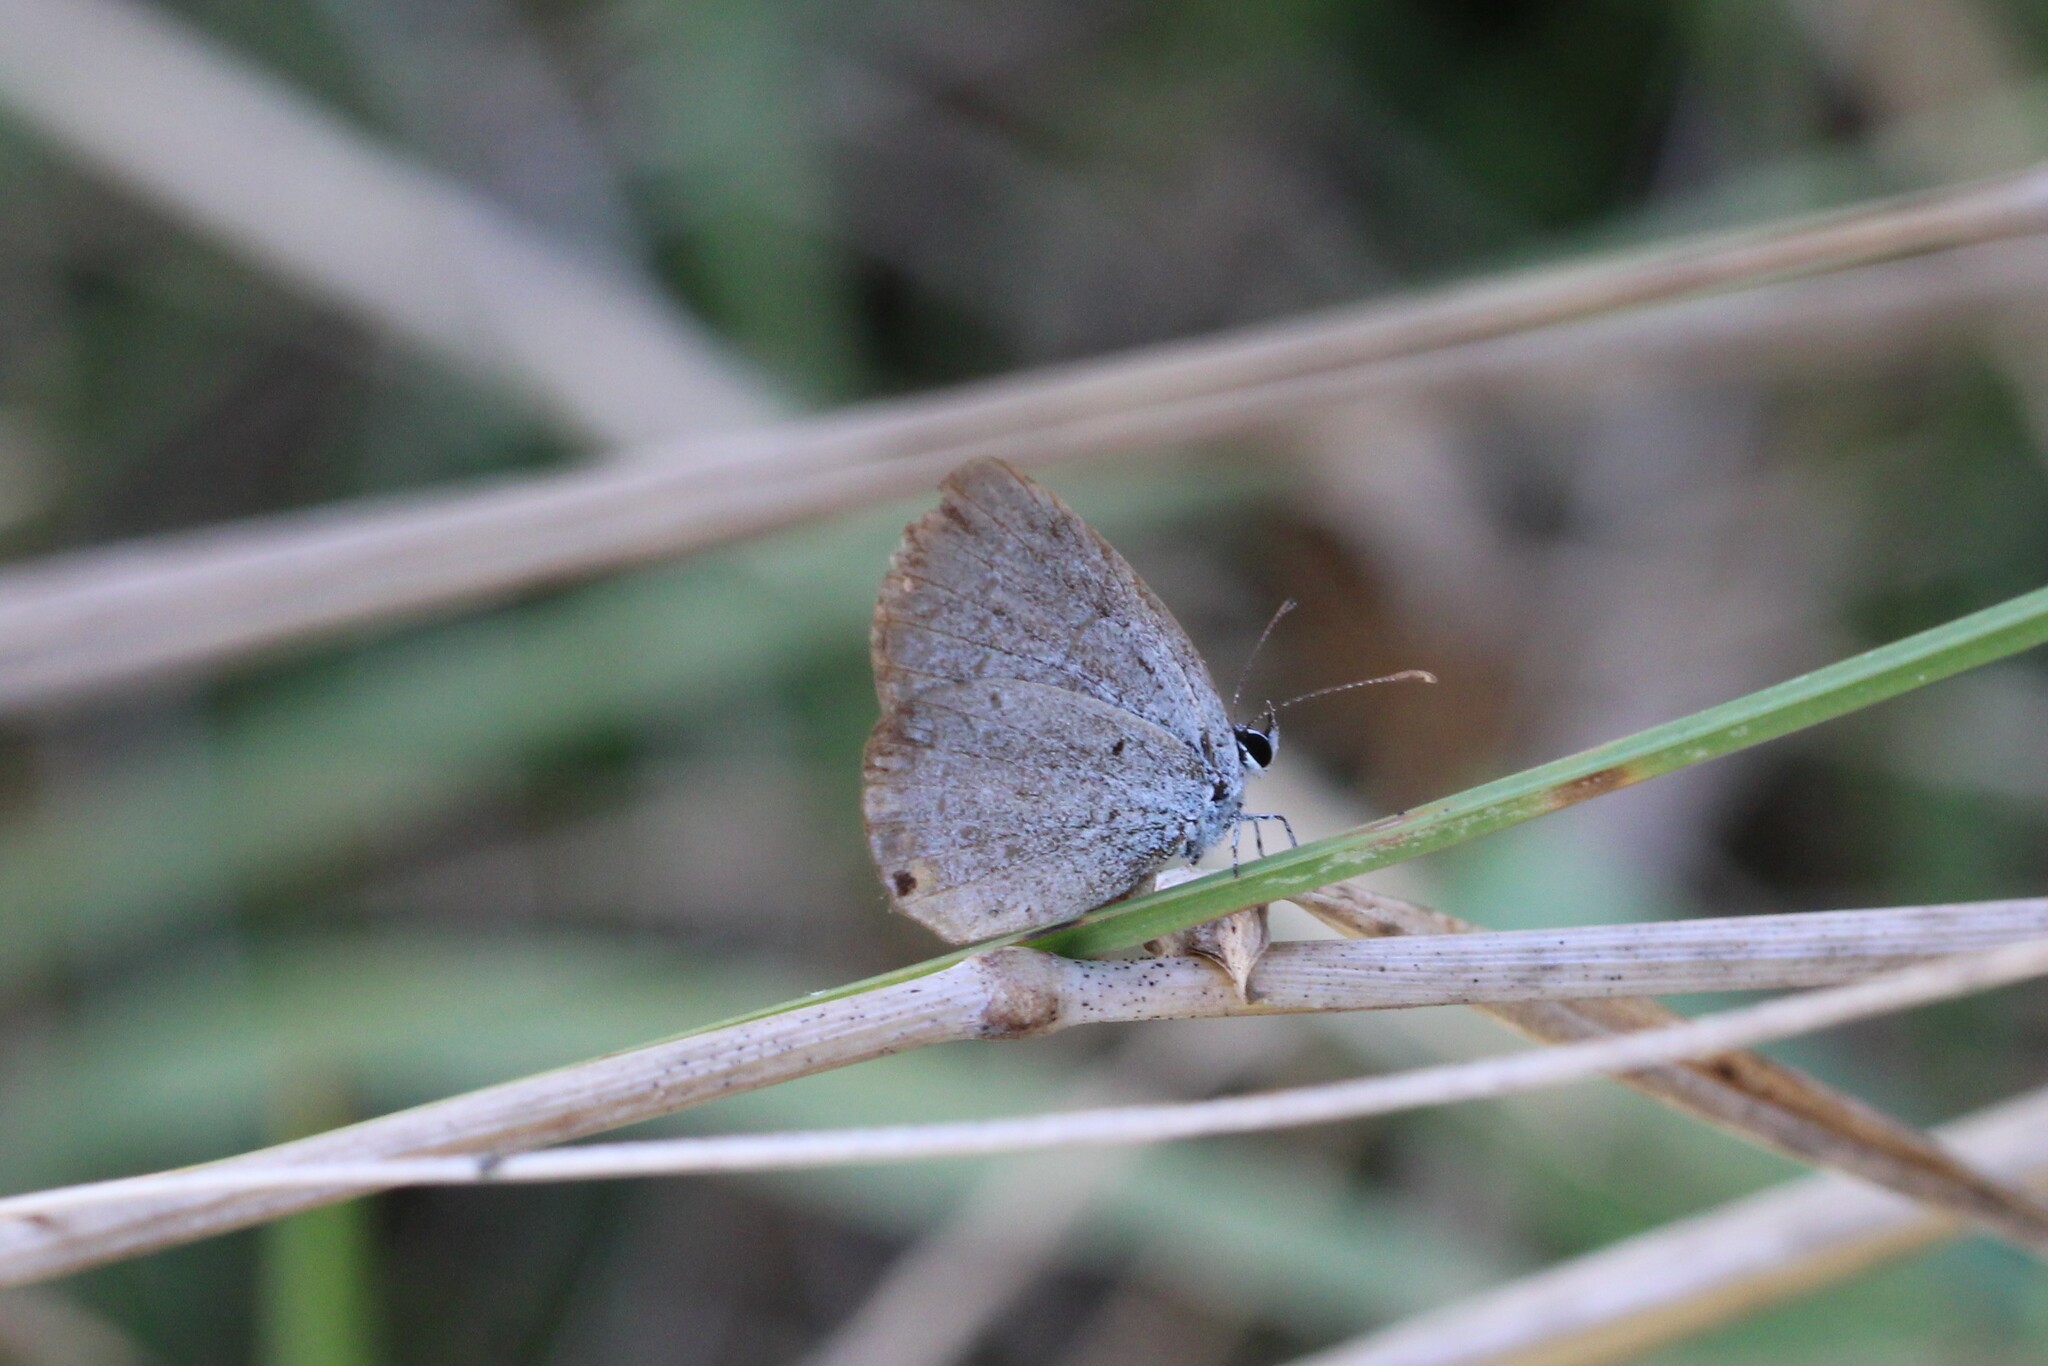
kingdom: Animalia
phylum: Arthropoda
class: Insecta
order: Lepidoptera
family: Lycaenidae
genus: Elkalyce
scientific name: Elkalyce comyntas
